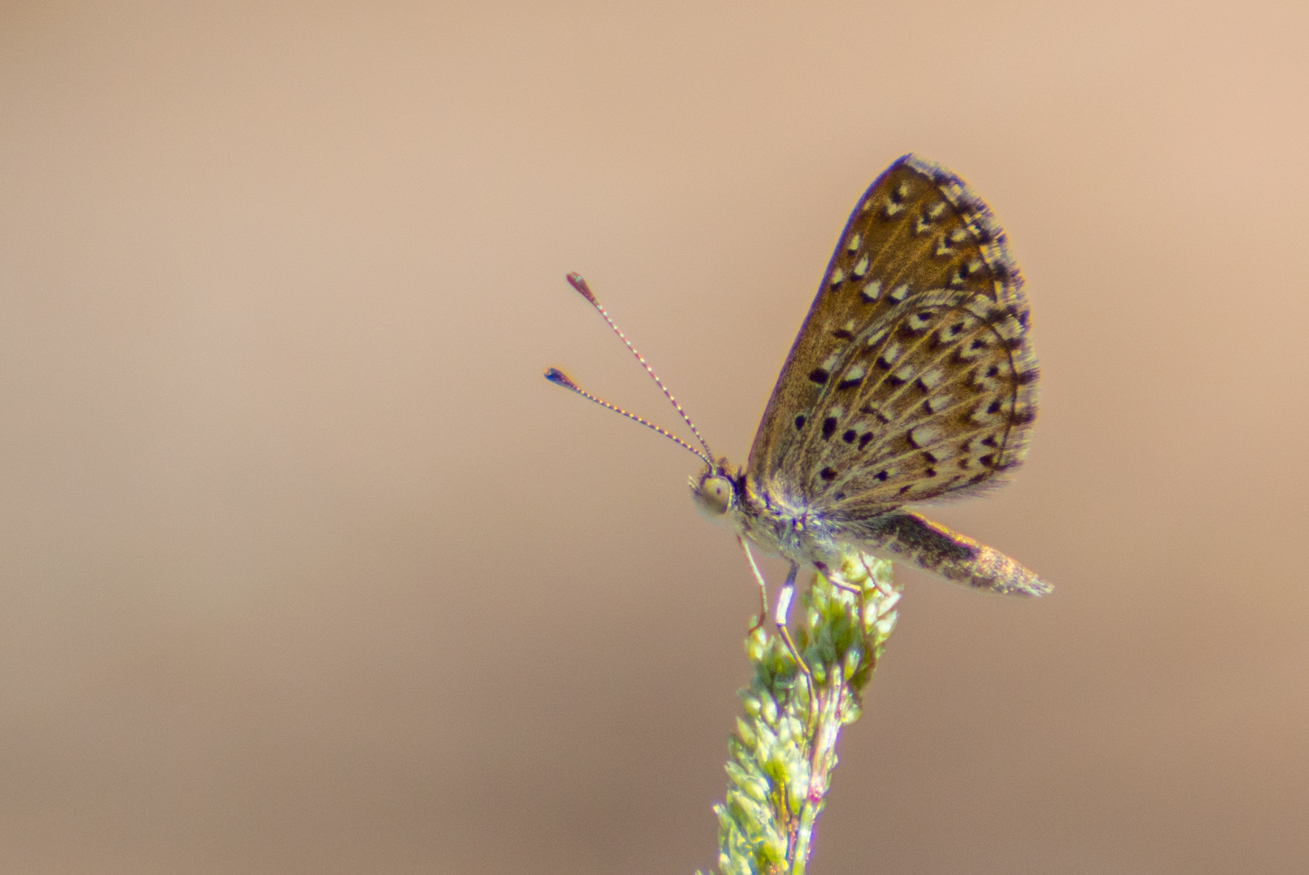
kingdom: Animalia
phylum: Arthropoda
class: Insecta
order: Lepidoptera
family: Riodinidae
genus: Zabuella
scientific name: Zabuella tenellus
